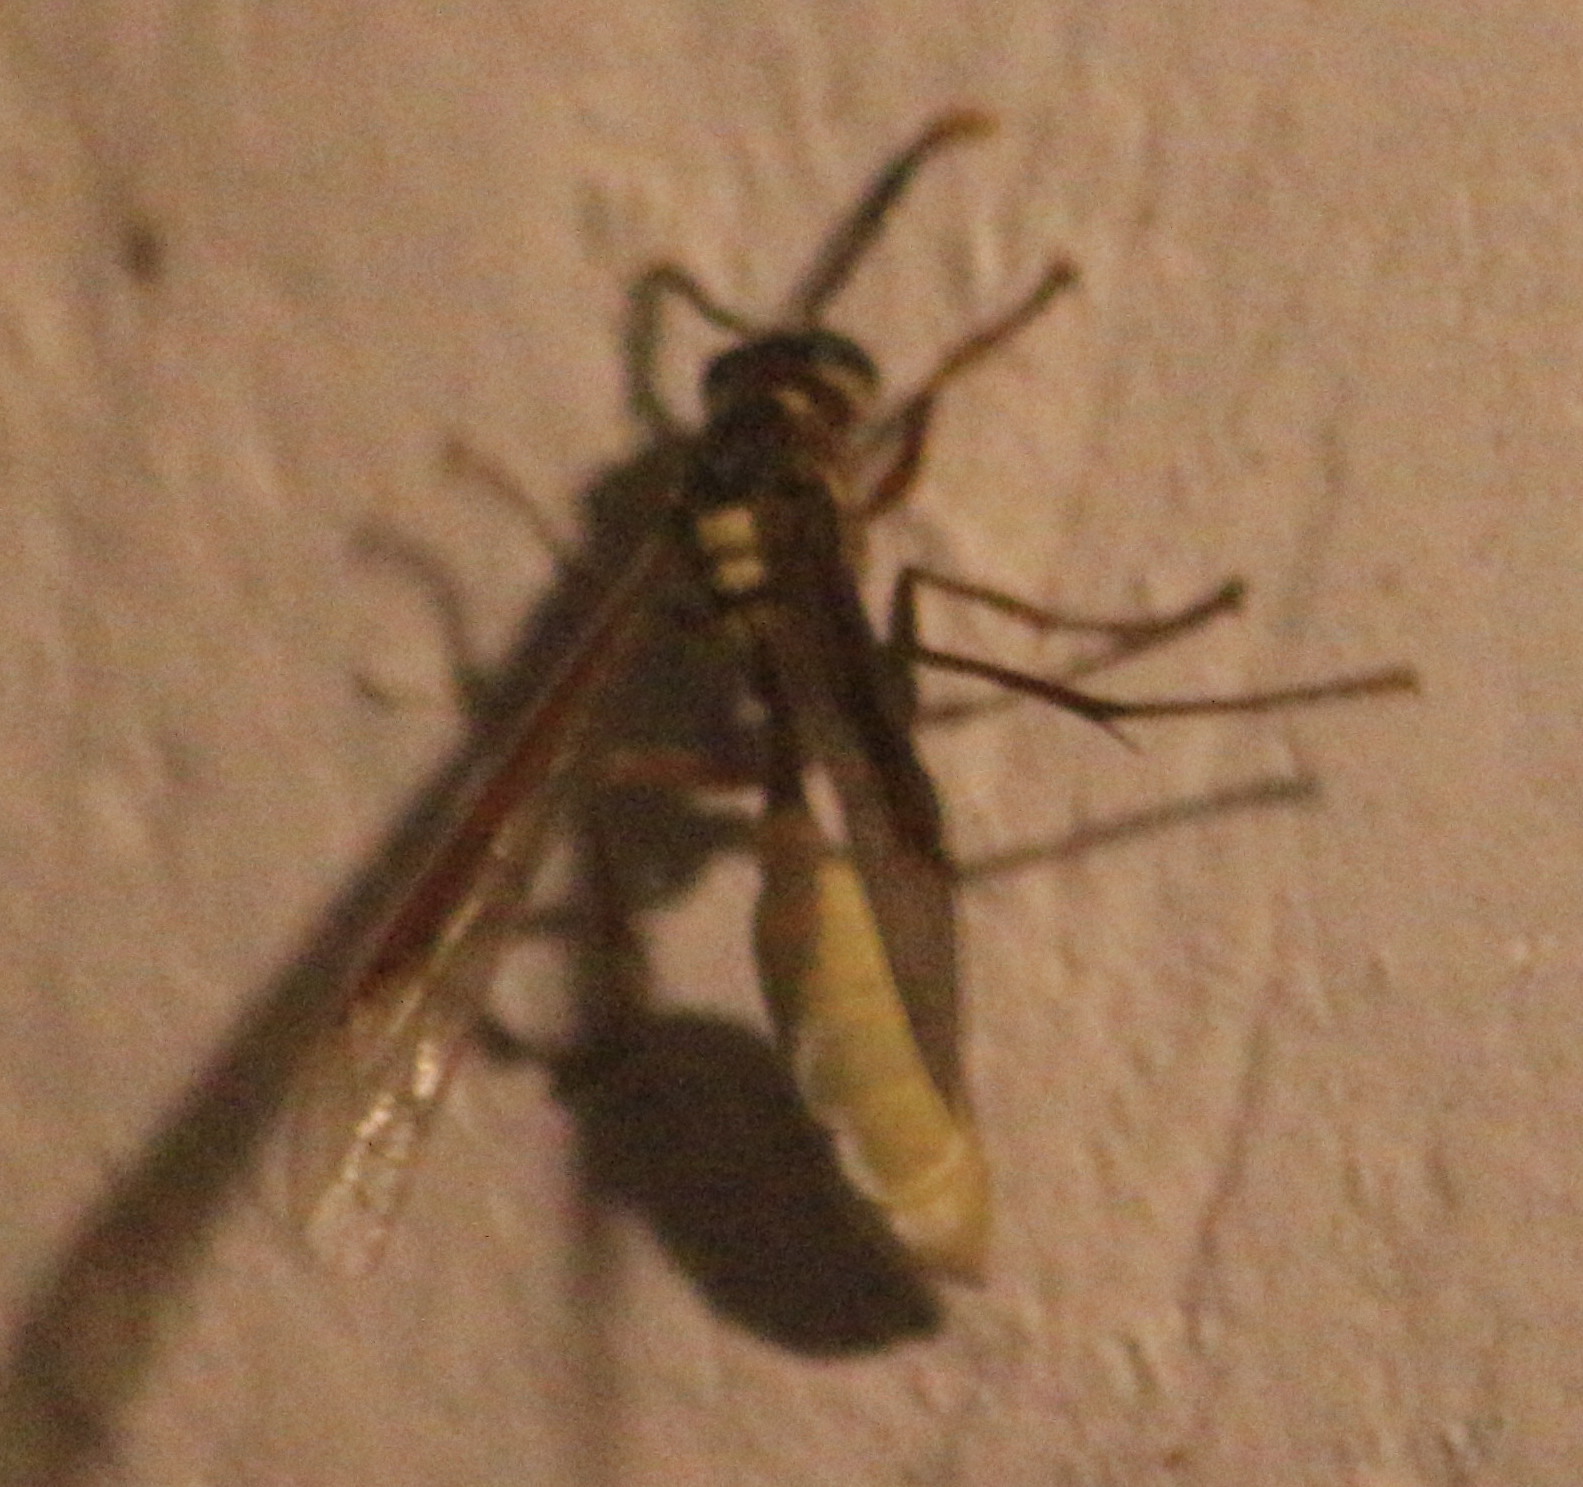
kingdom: Animalia
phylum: Arthropoda
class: Insecta
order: Hymenoptera
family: Vespidae
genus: Apoica
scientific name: Apoica pallens
